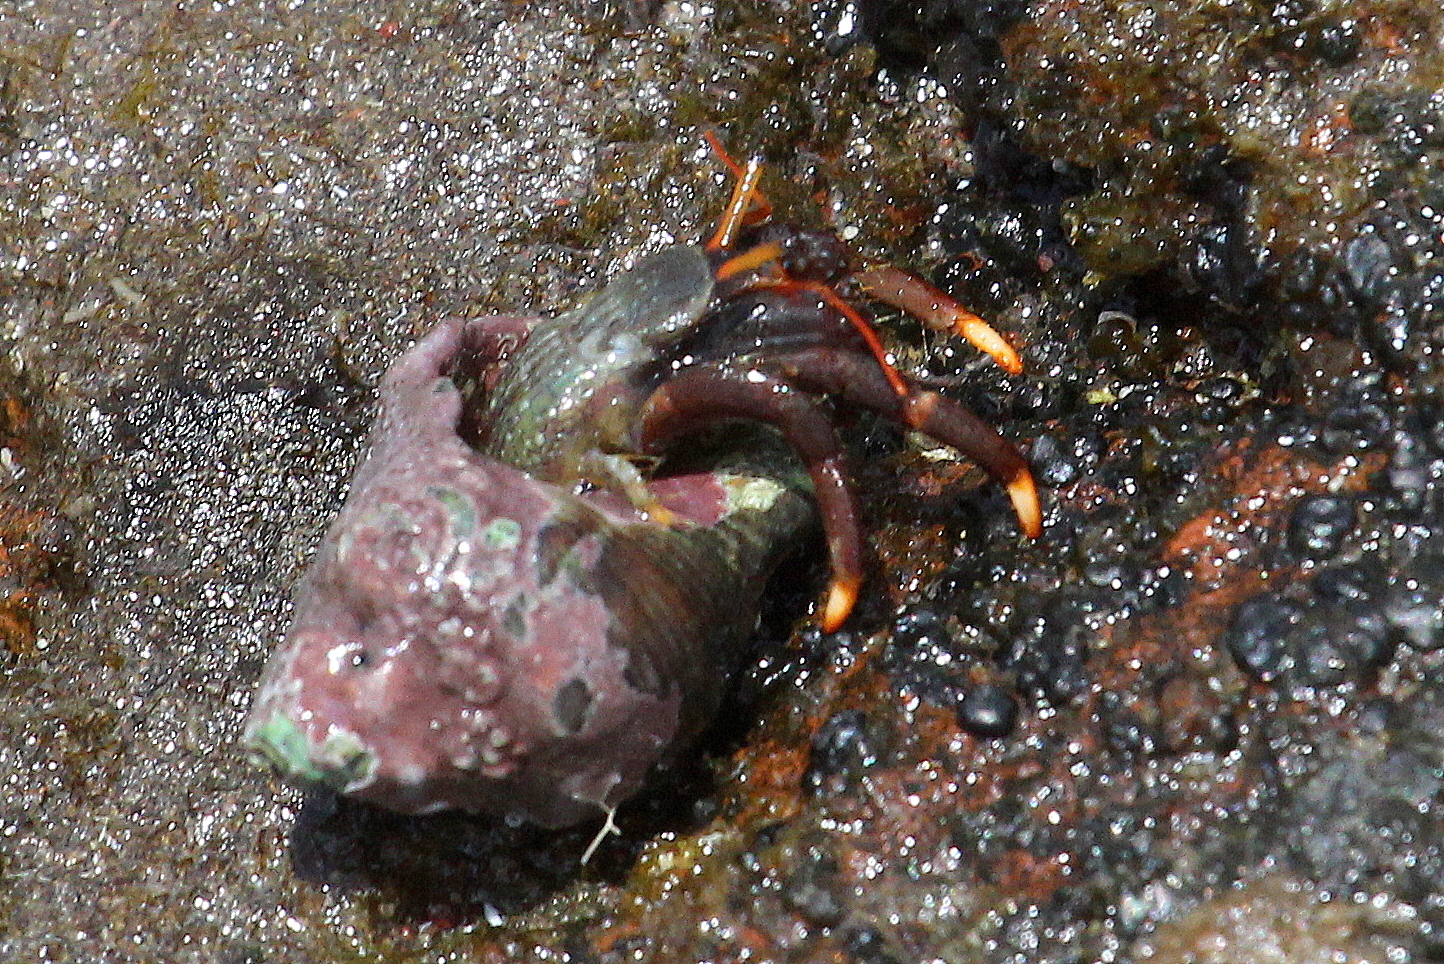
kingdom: Animalia
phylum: Arthropoda
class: Malacostraca
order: Decapoda
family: Diogenidae
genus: Clibanarius
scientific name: Clibanarius aequabilis
